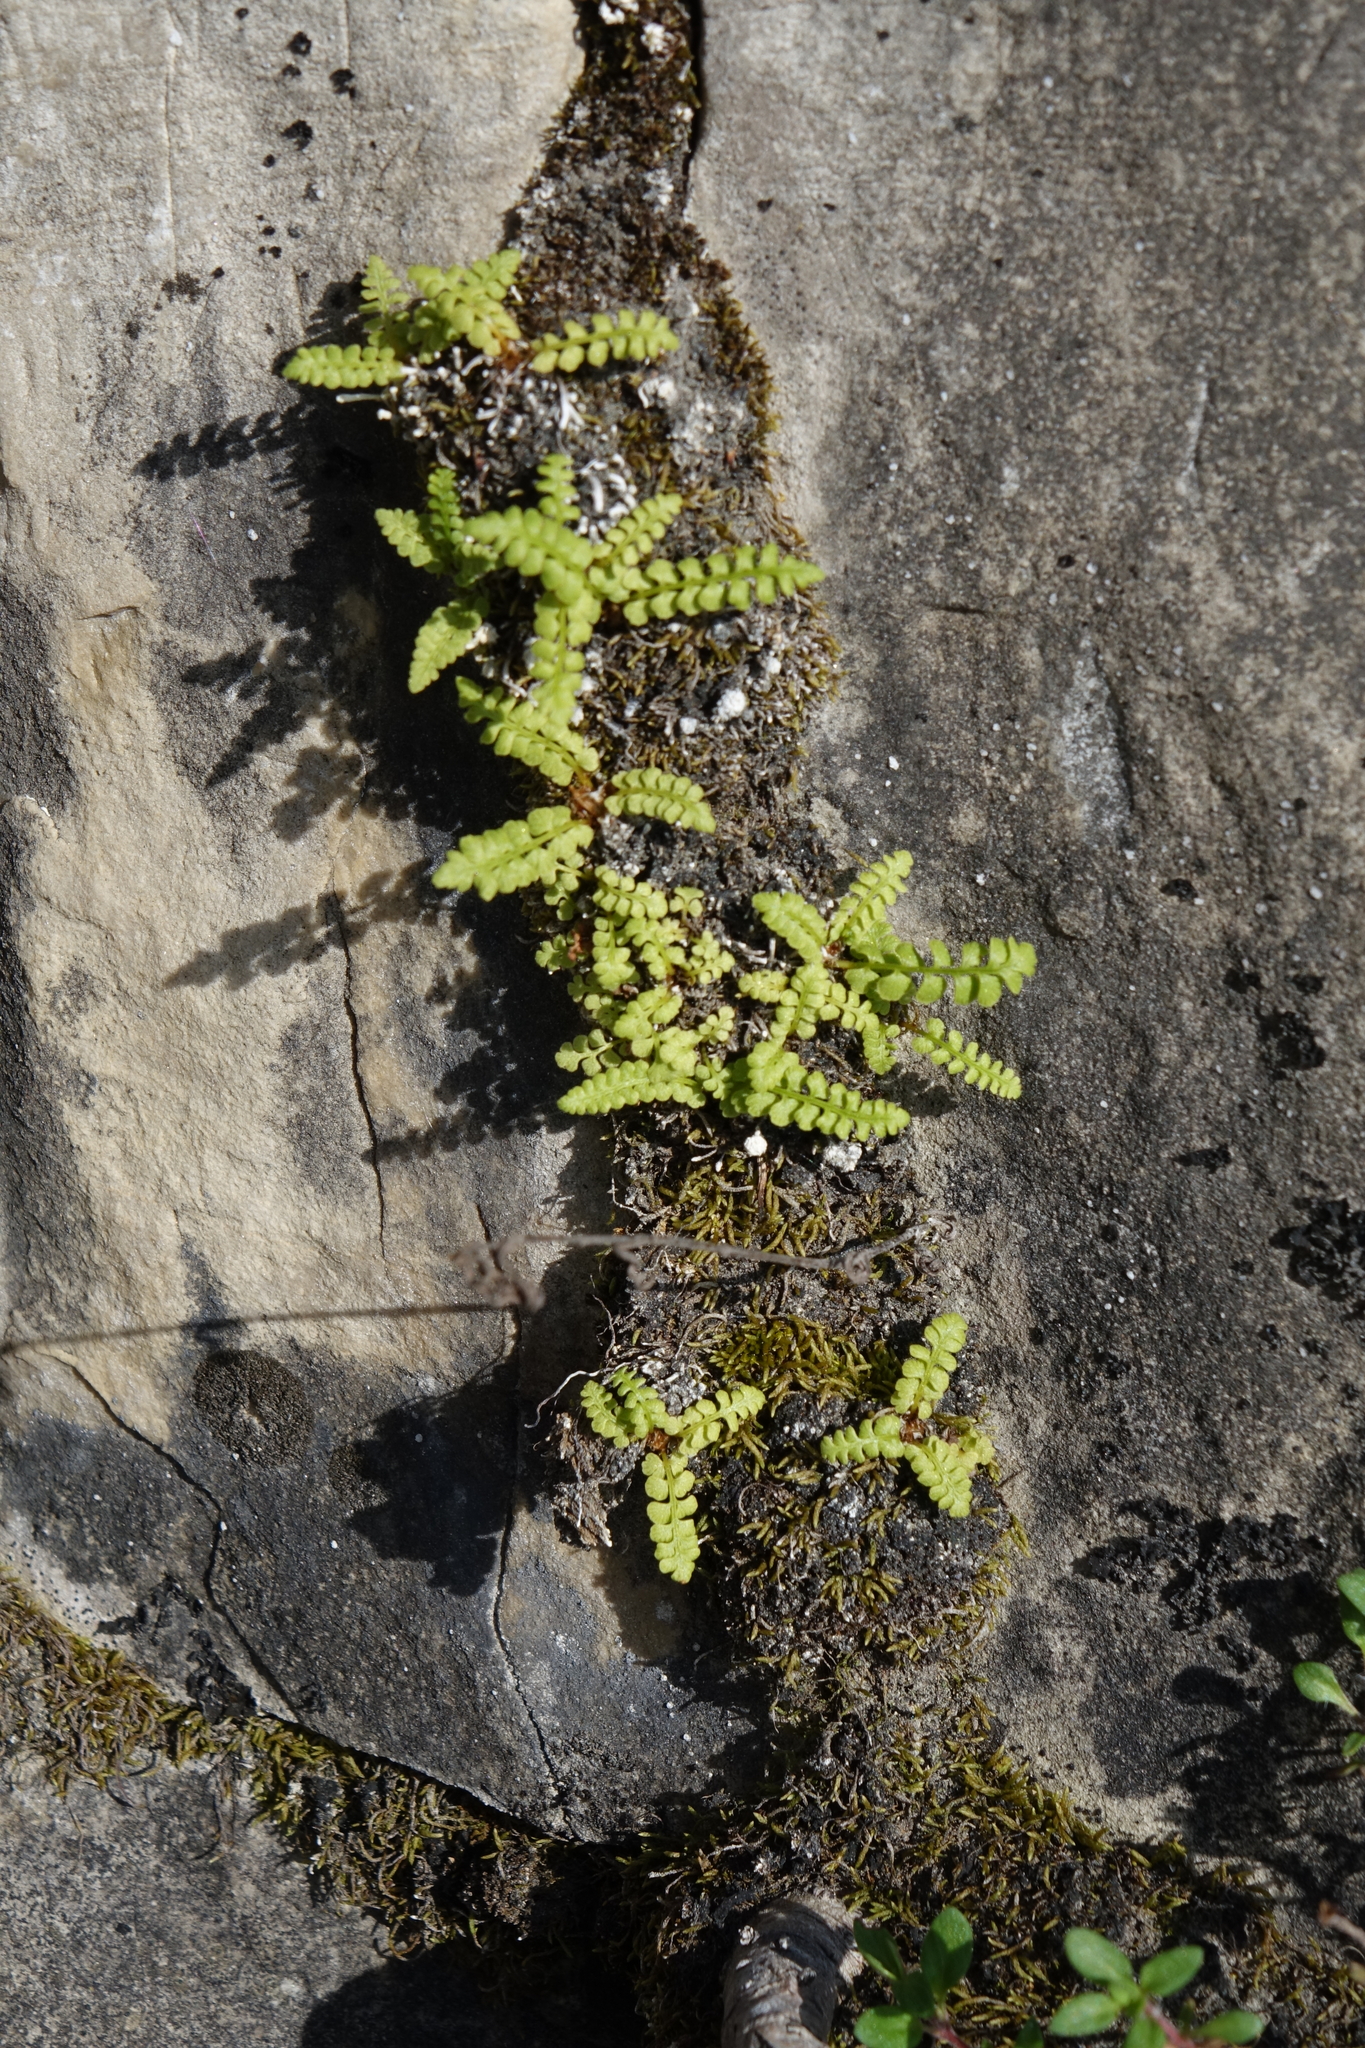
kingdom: Plantae
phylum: Tracheophyta
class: Polypodiopsida
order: Polypodiales
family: Woodsiaceae
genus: Woodsia
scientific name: Woodsia glabella
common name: Smooth woodsia
